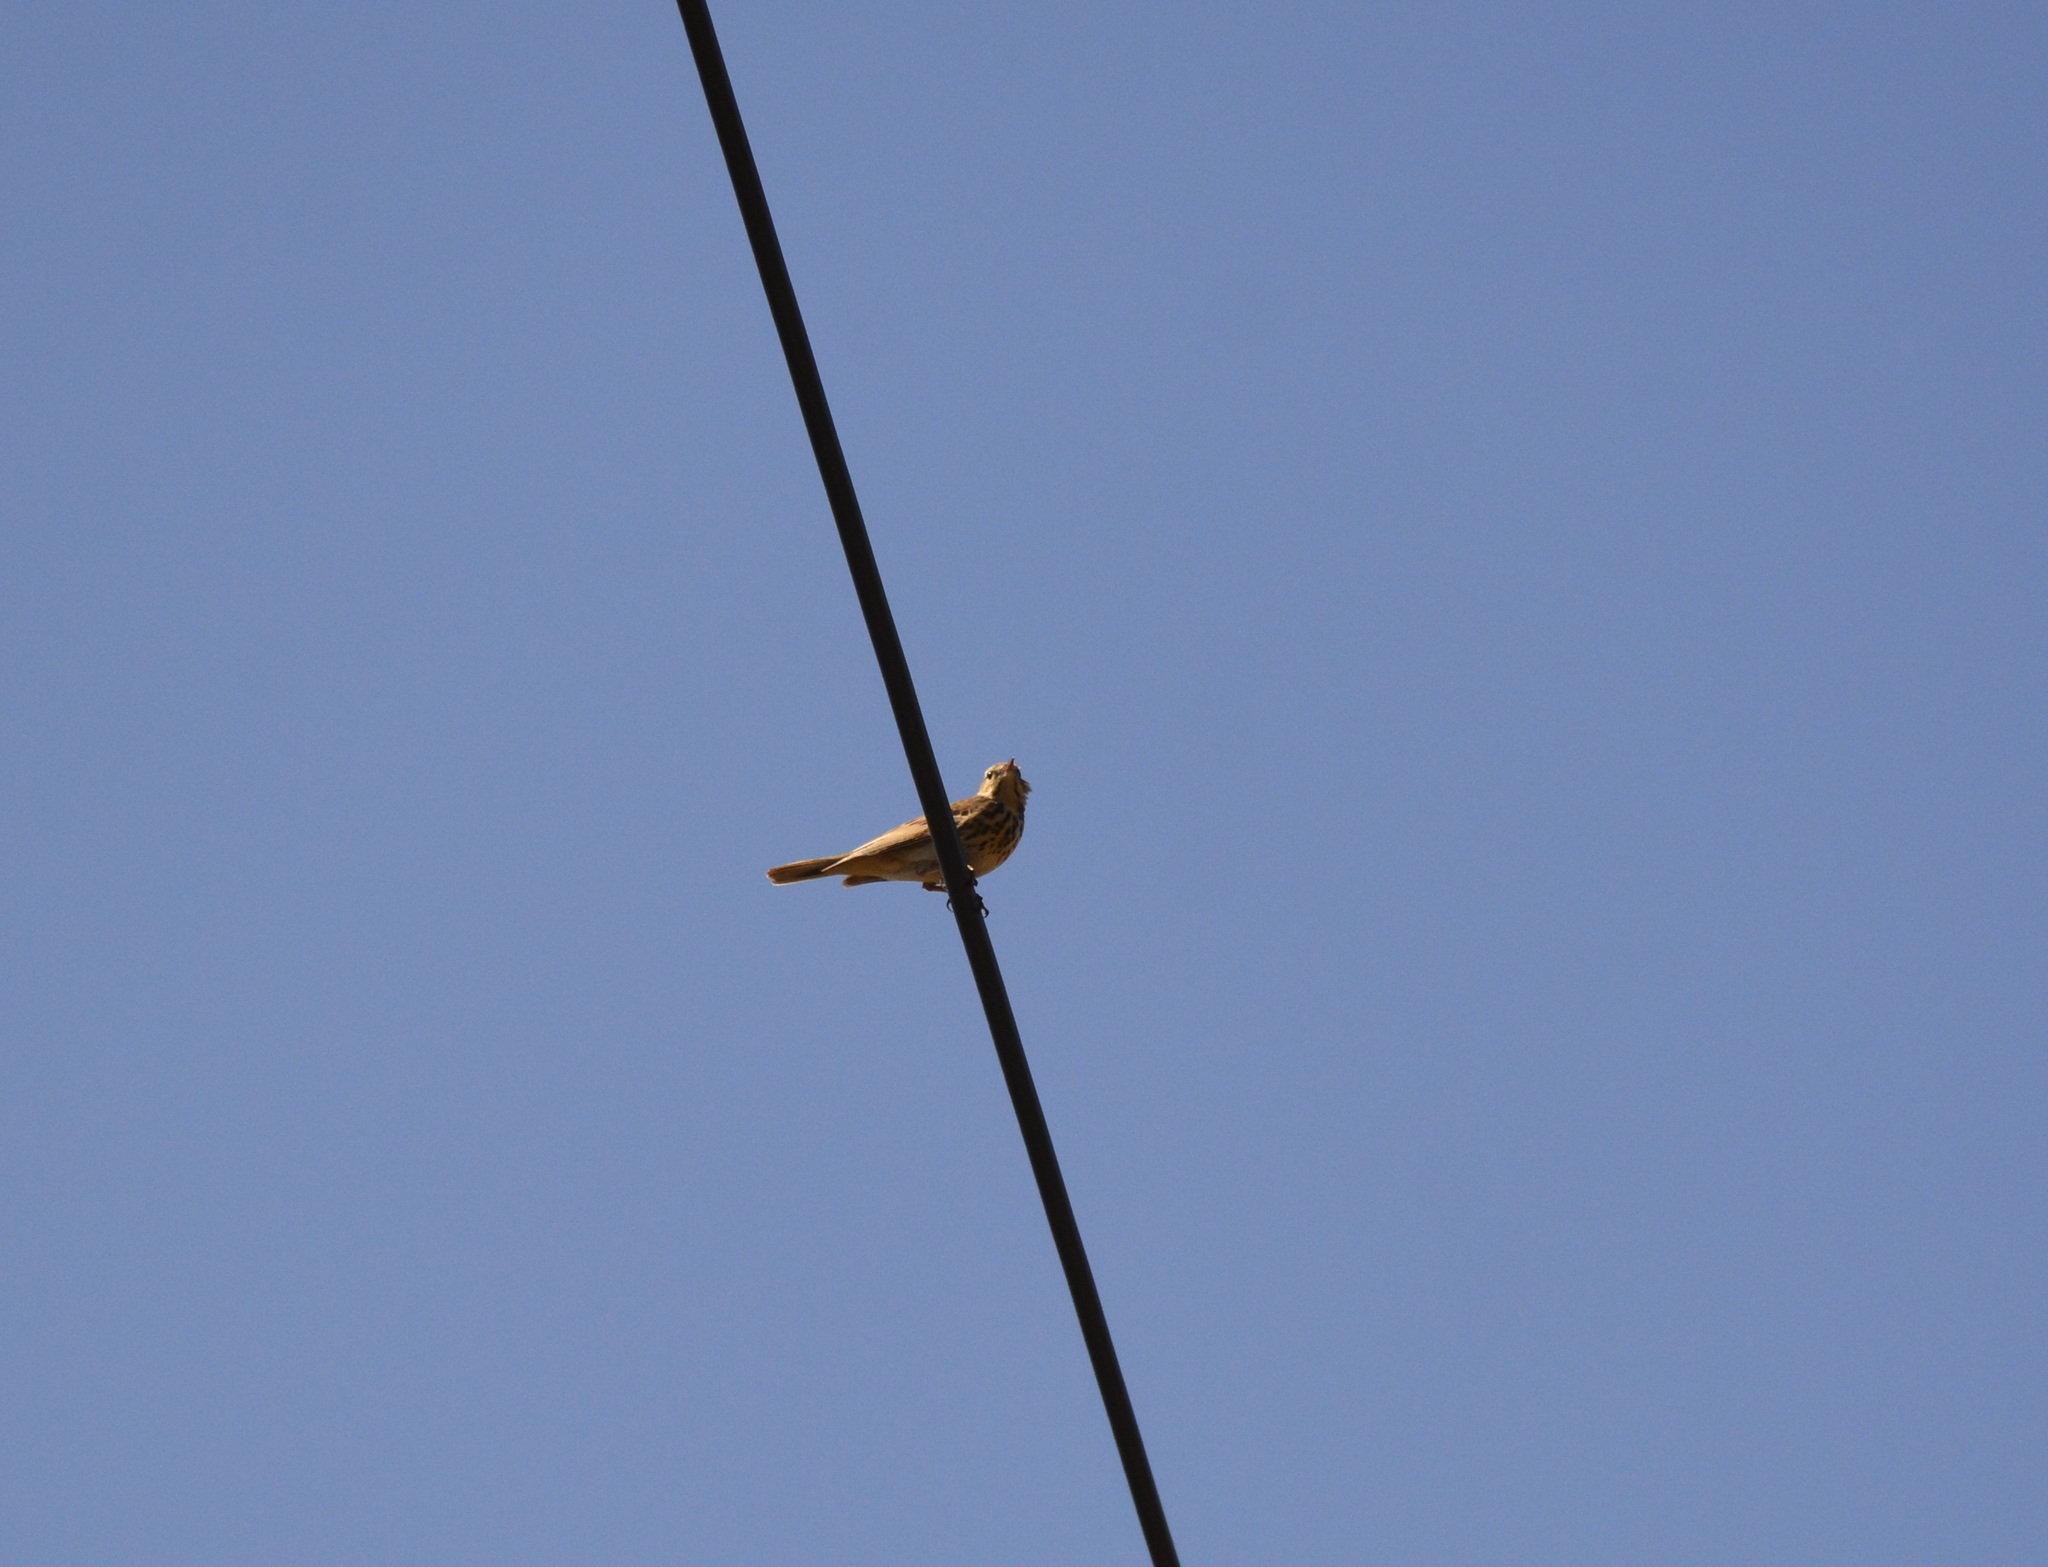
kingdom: Animalia
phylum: Chordata
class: Aves
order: Passeriformes
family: Motacillidae
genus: Anthus
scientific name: Anthus trivialis
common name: Tree pipit
